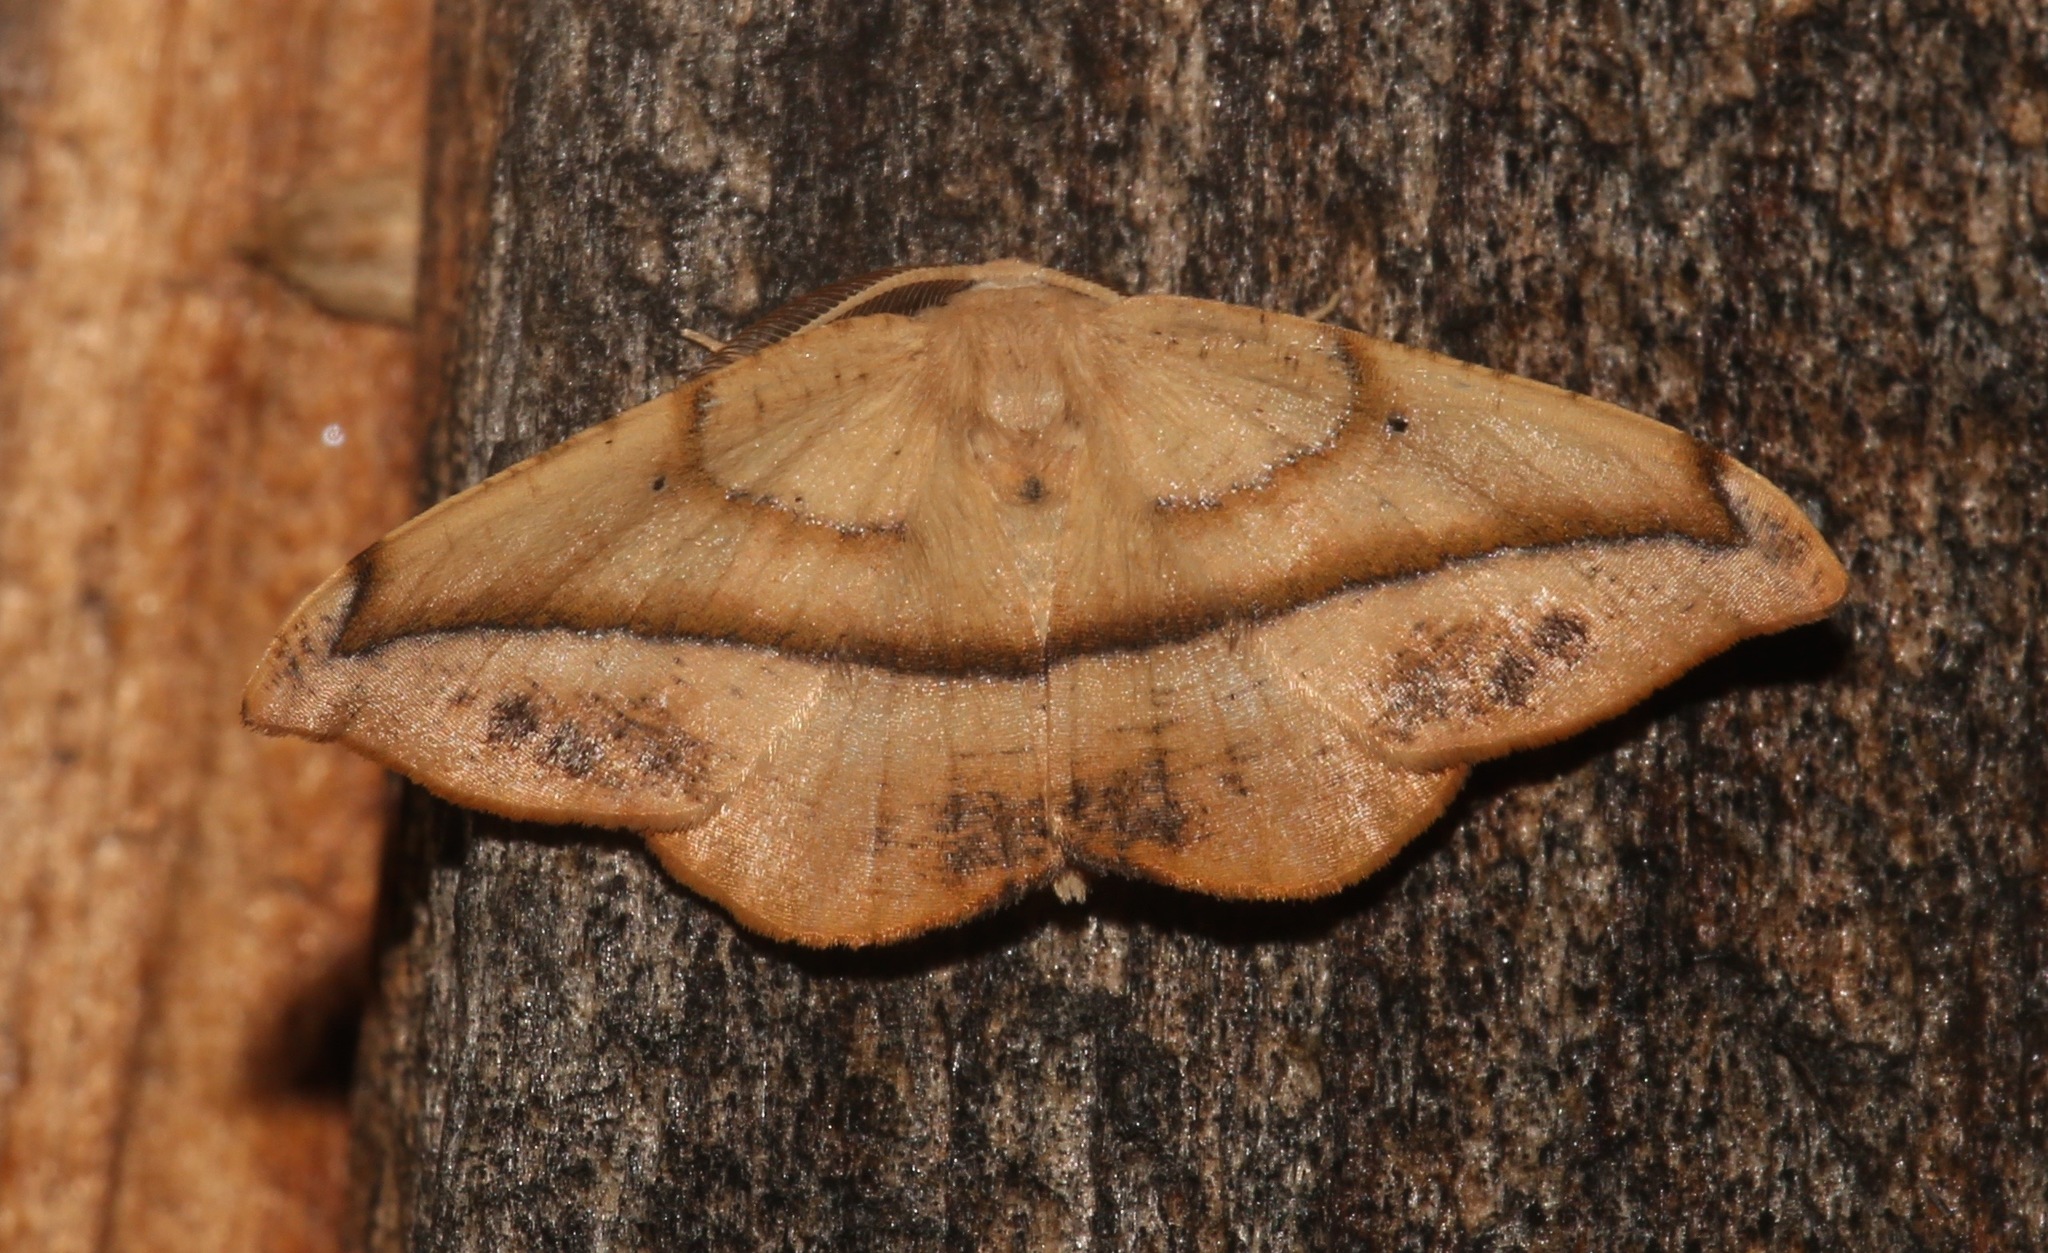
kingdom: Animalia
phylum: Arthropoda
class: Insecta
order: Lepidoptera
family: Geometridae
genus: Patalene
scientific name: Patalene olyzonaria
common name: Juniper geometer moth
